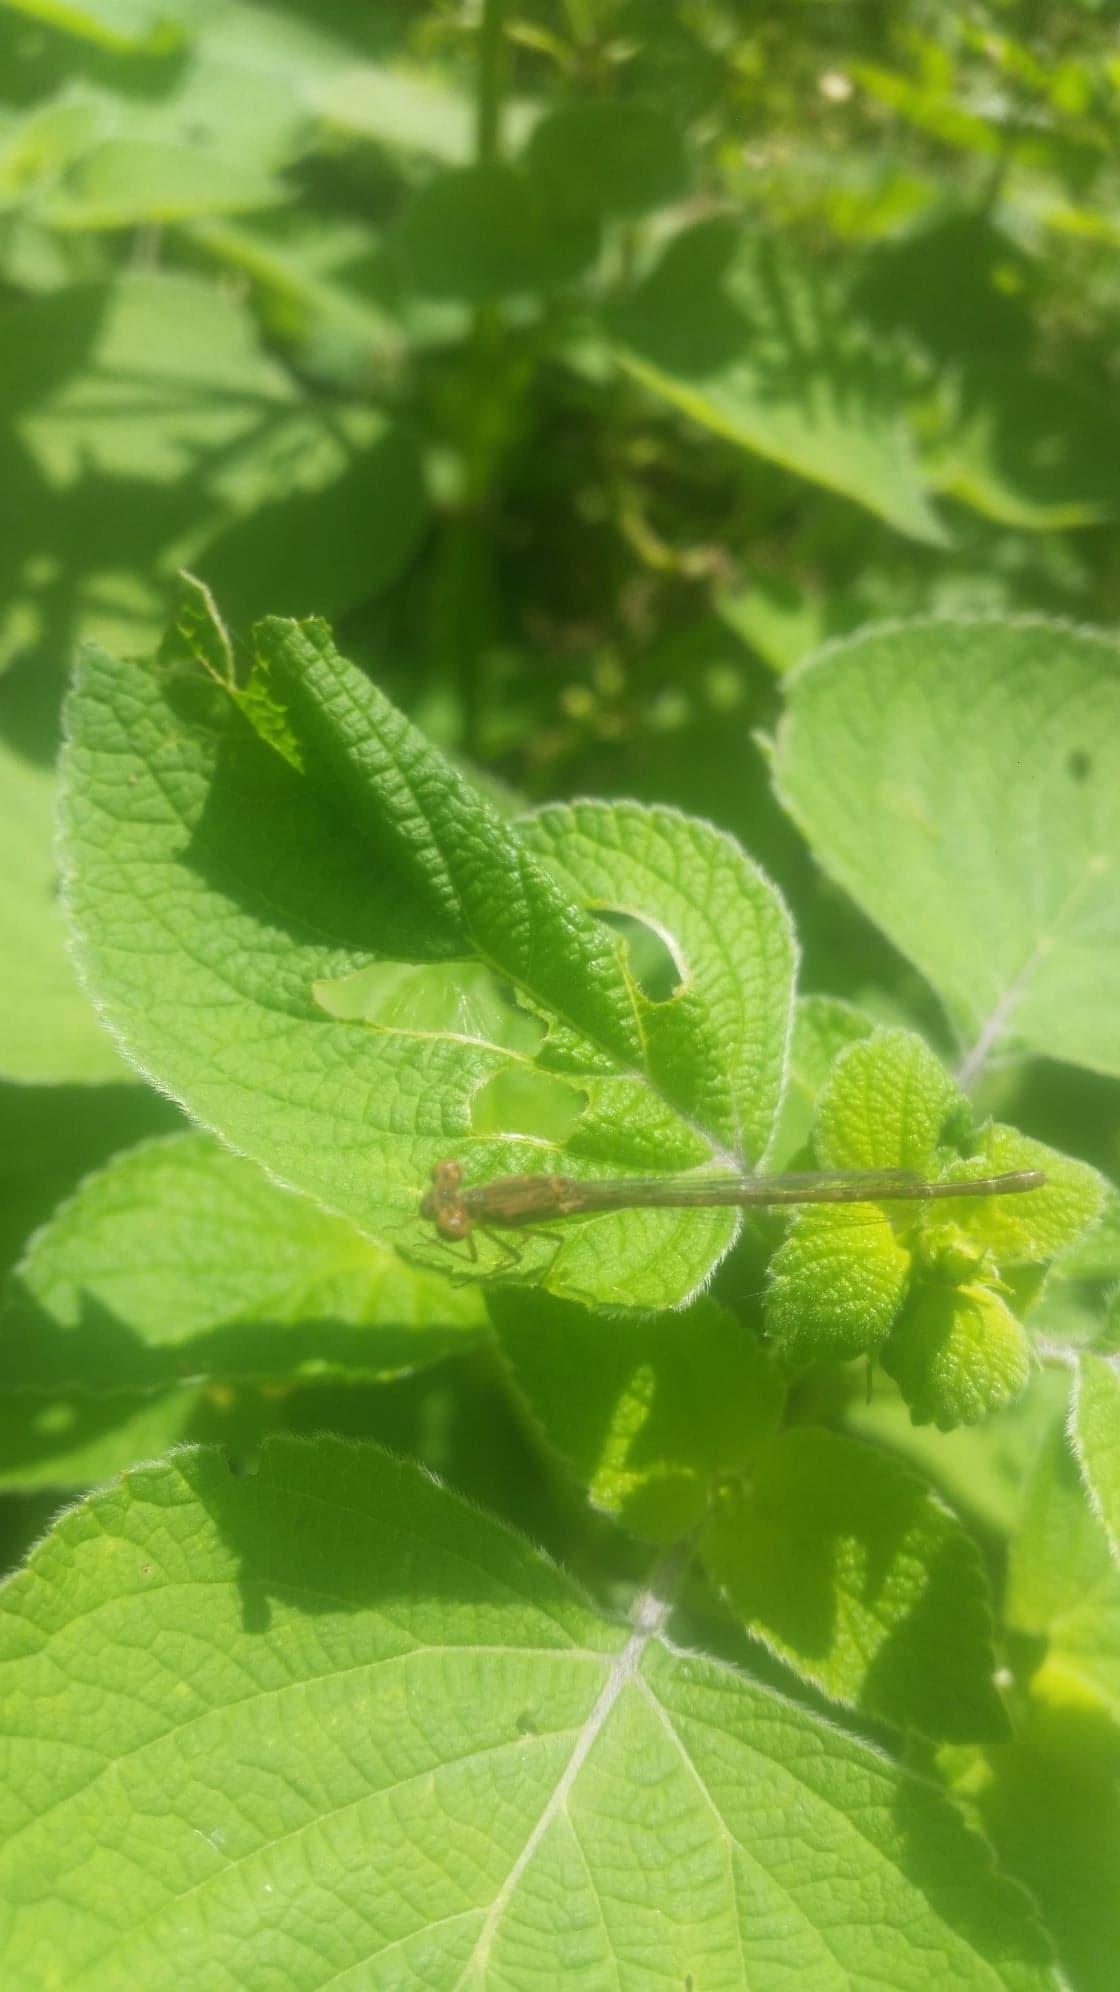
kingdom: Animalia
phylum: Arthropoda
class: Insecta
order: Odonata
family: Coenagrionidae
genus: Telebasis
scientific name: Telebasis salva
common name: Desert firetail
